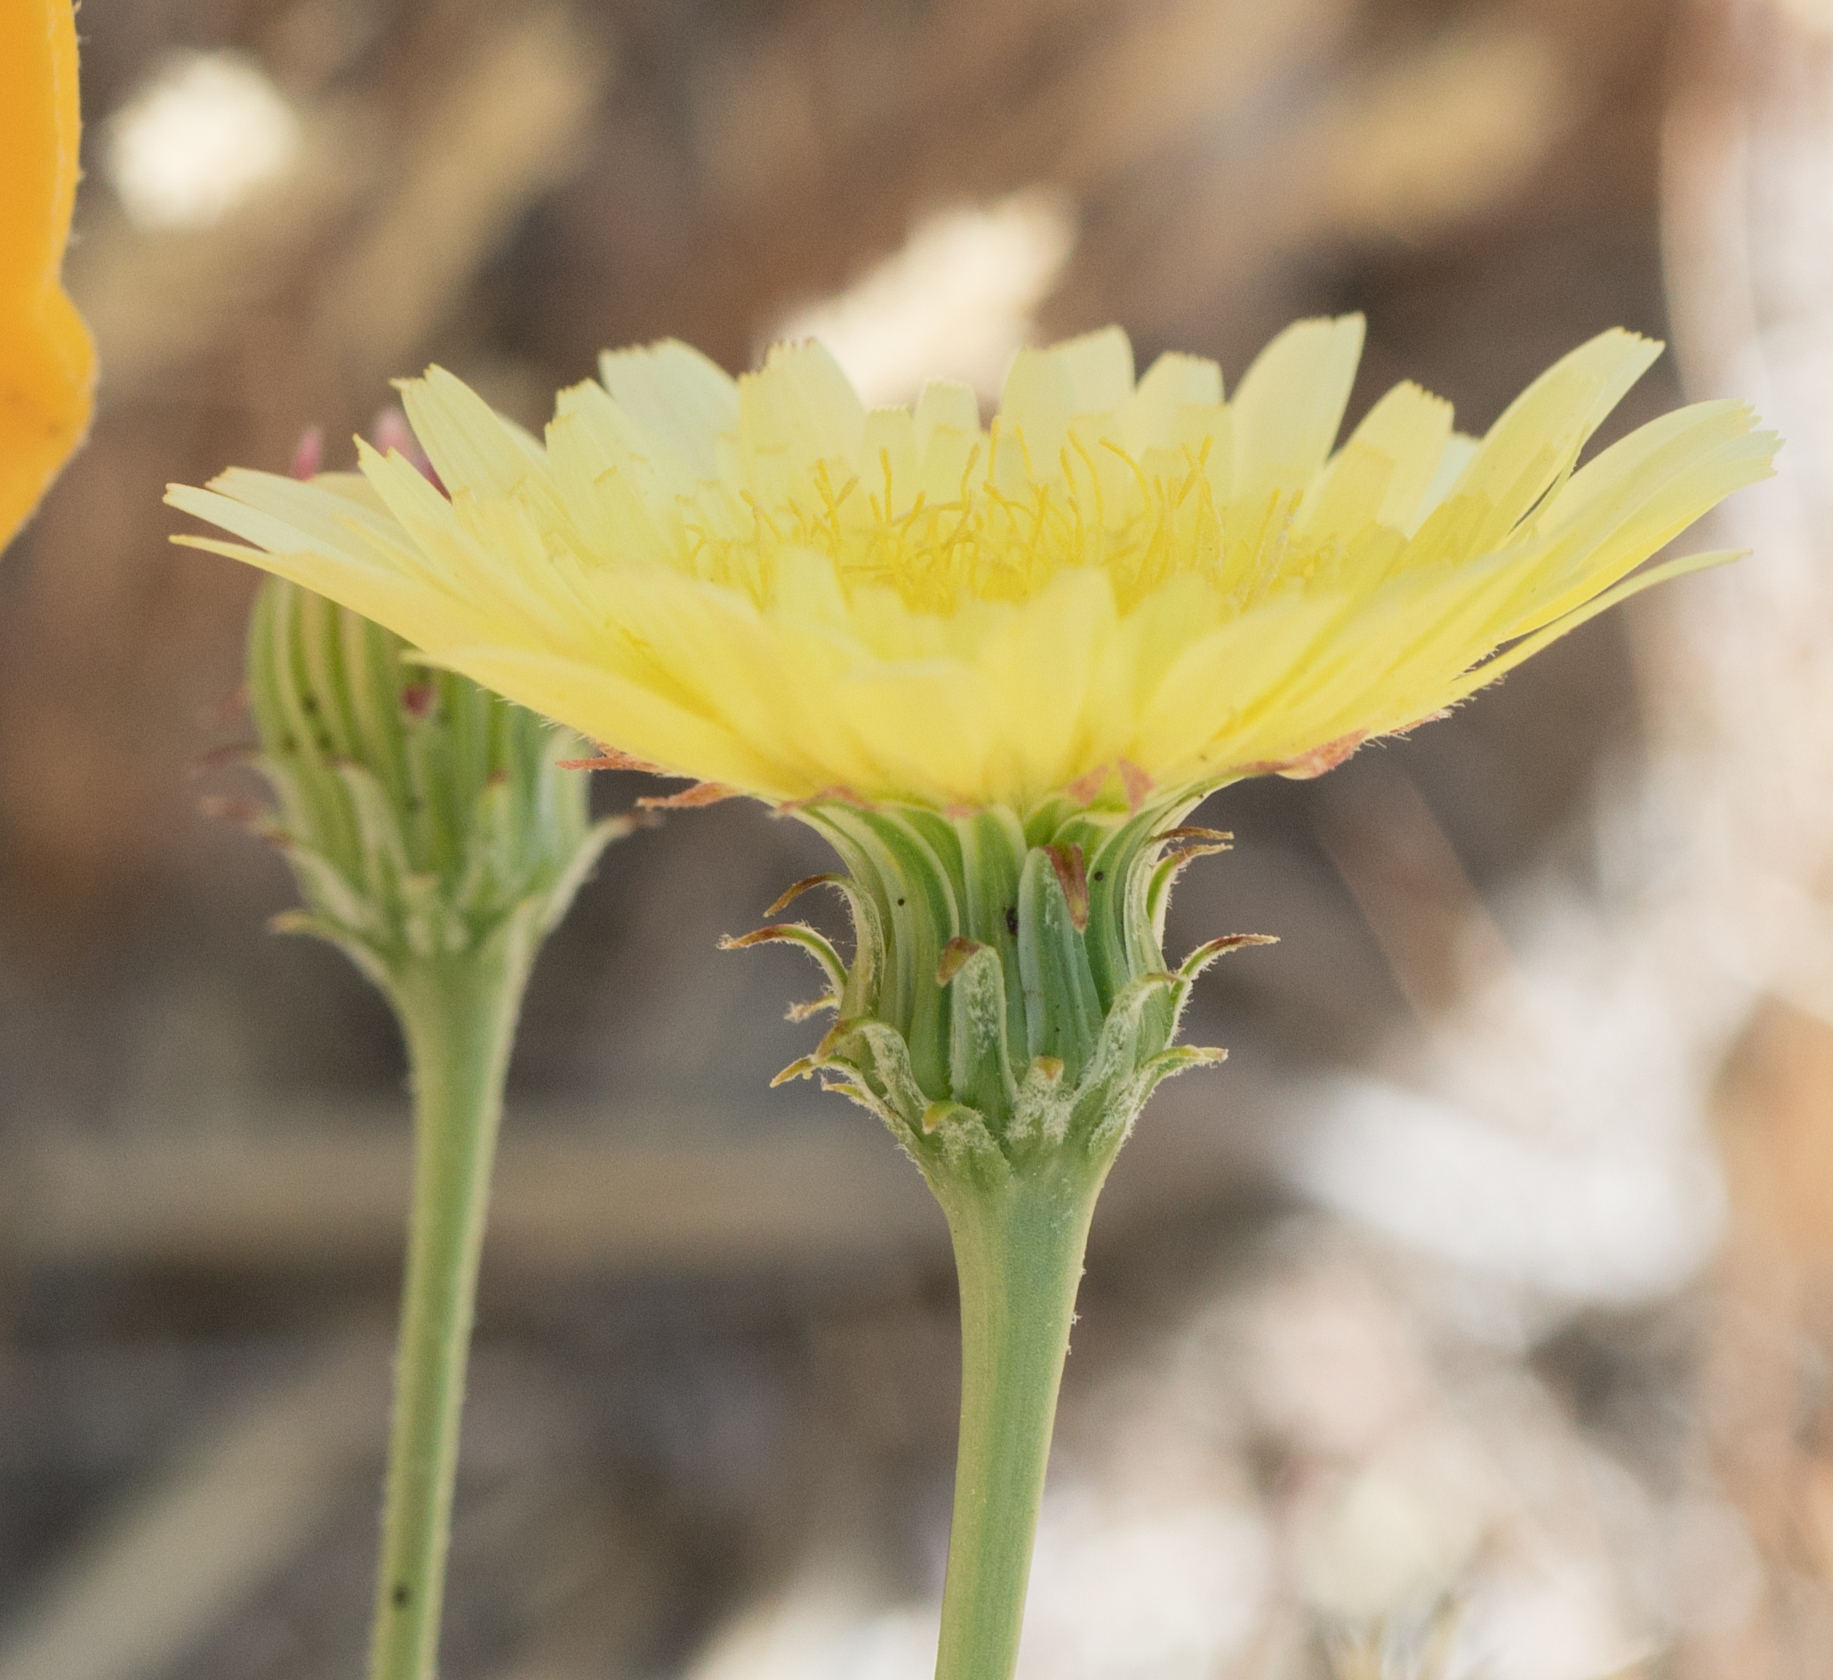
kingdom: Plantae
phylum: Tracheophyta
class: Magnoliopsida
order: Asterales
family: Asteraceae
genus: Malacothrix
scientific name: Malacothrix glabrata
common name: Smooth desert-dandelion
